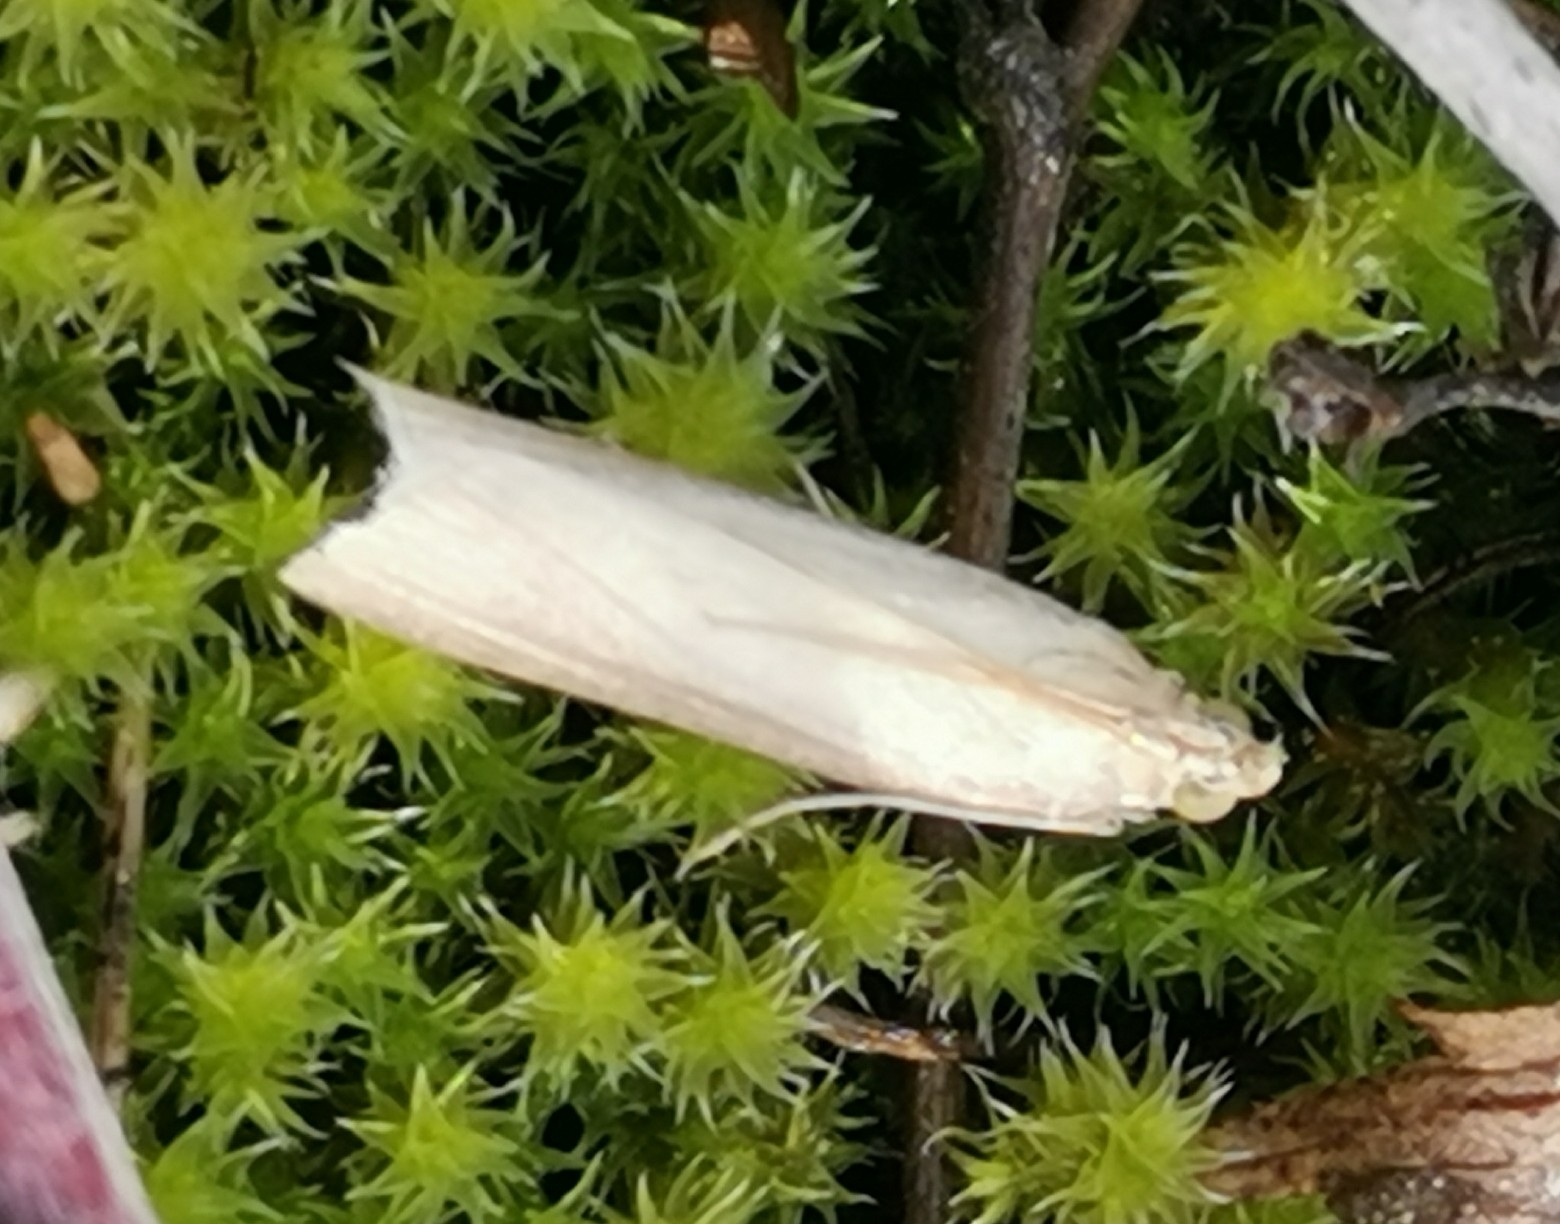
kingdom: Animalia
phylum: Arthropoda
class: Insecta
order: Lepidoptera
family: Pyralidae
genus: Oncocera
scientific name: Oncocera semirubella
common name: Rosy-striped knot-horn
